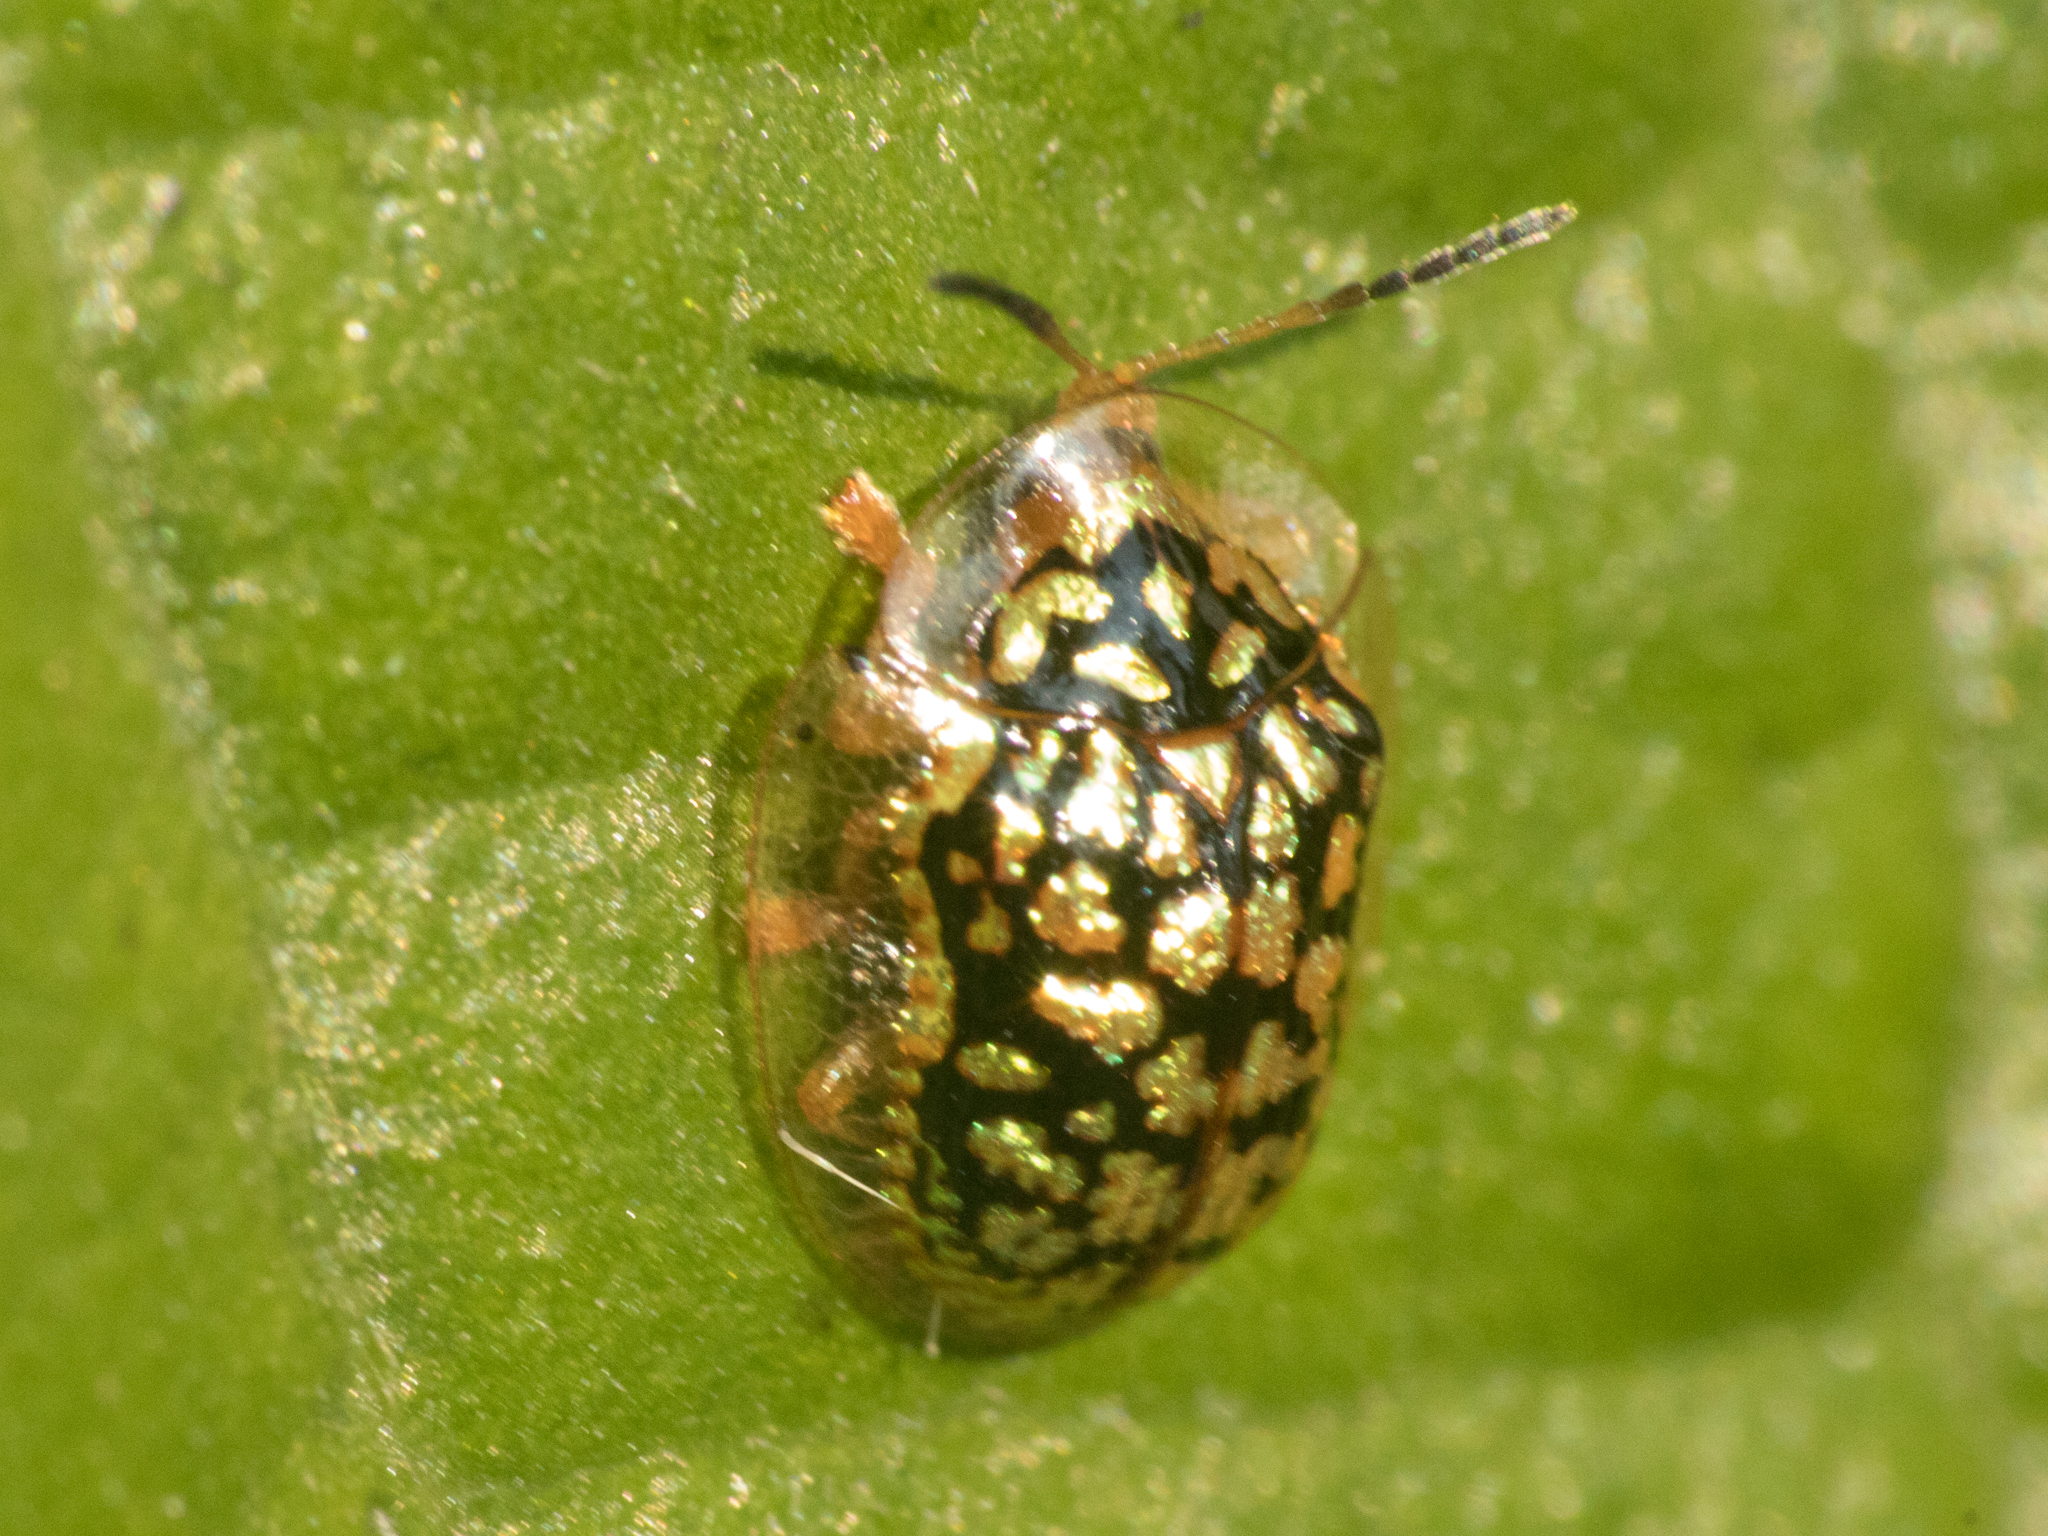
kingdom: Animalia
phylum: Arthropoda
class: Insecta
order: Coleoptera
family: Chrysomelidae
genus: Cteisella
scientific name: Cteisella confusa
